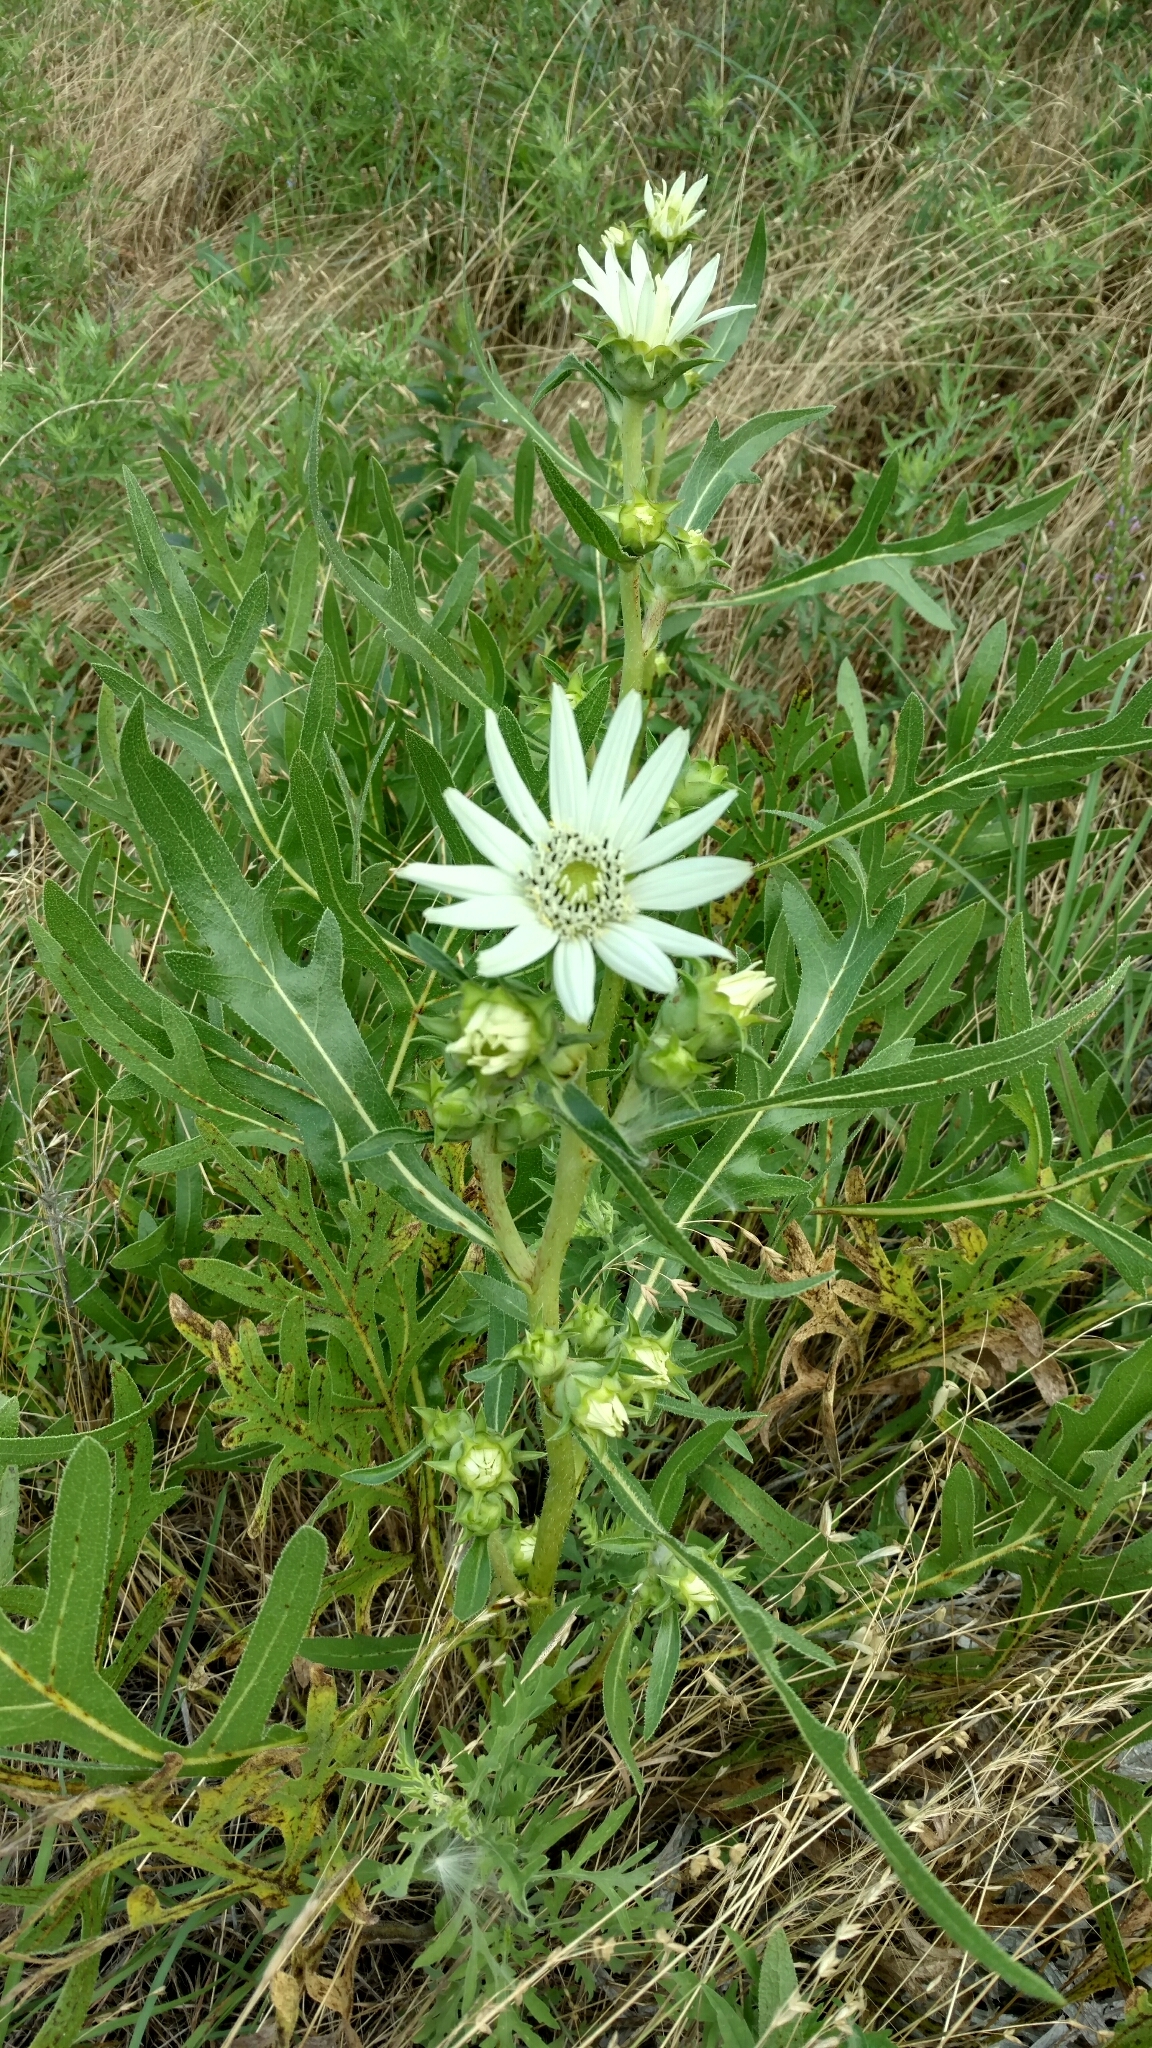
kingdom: Plantae
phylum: Tracheophyta
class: Magnoliopsida
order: Asterales
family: Asteraceae
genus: Silphium
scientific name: Silphium albiflorum
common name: White rosinweed
